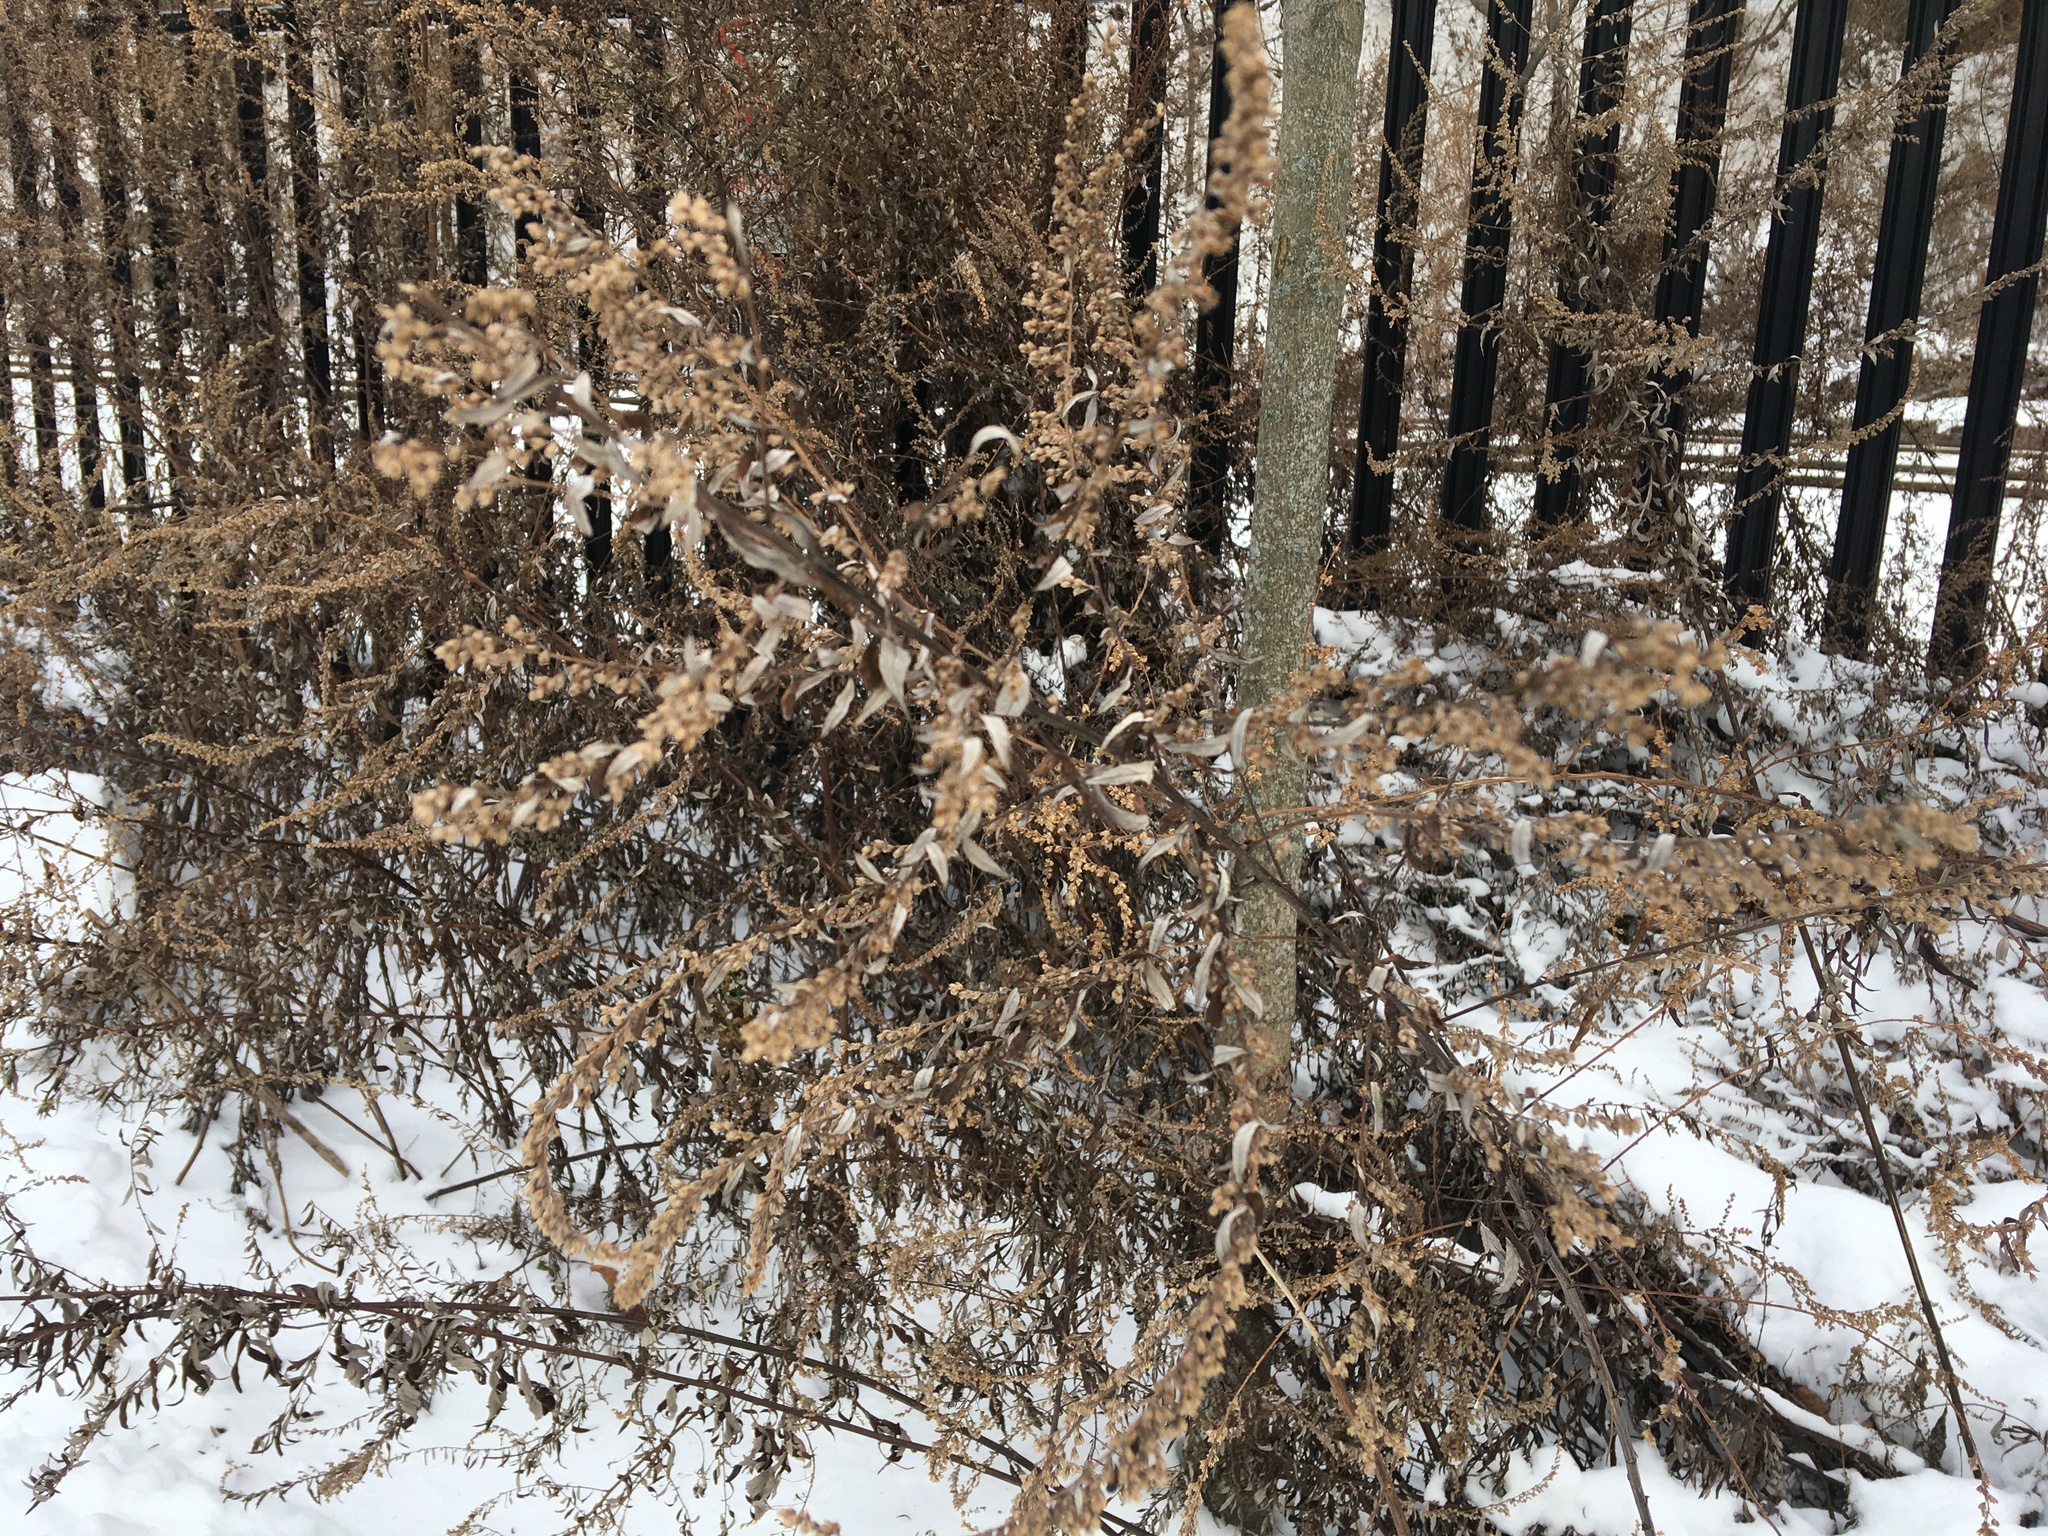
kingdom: Plantae
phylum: Tracheophyta
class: Magnoliopsida
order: Asterales
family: Asteraceae
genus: Artemisia
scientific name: Artemisia vulgaris
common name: Mugwort
